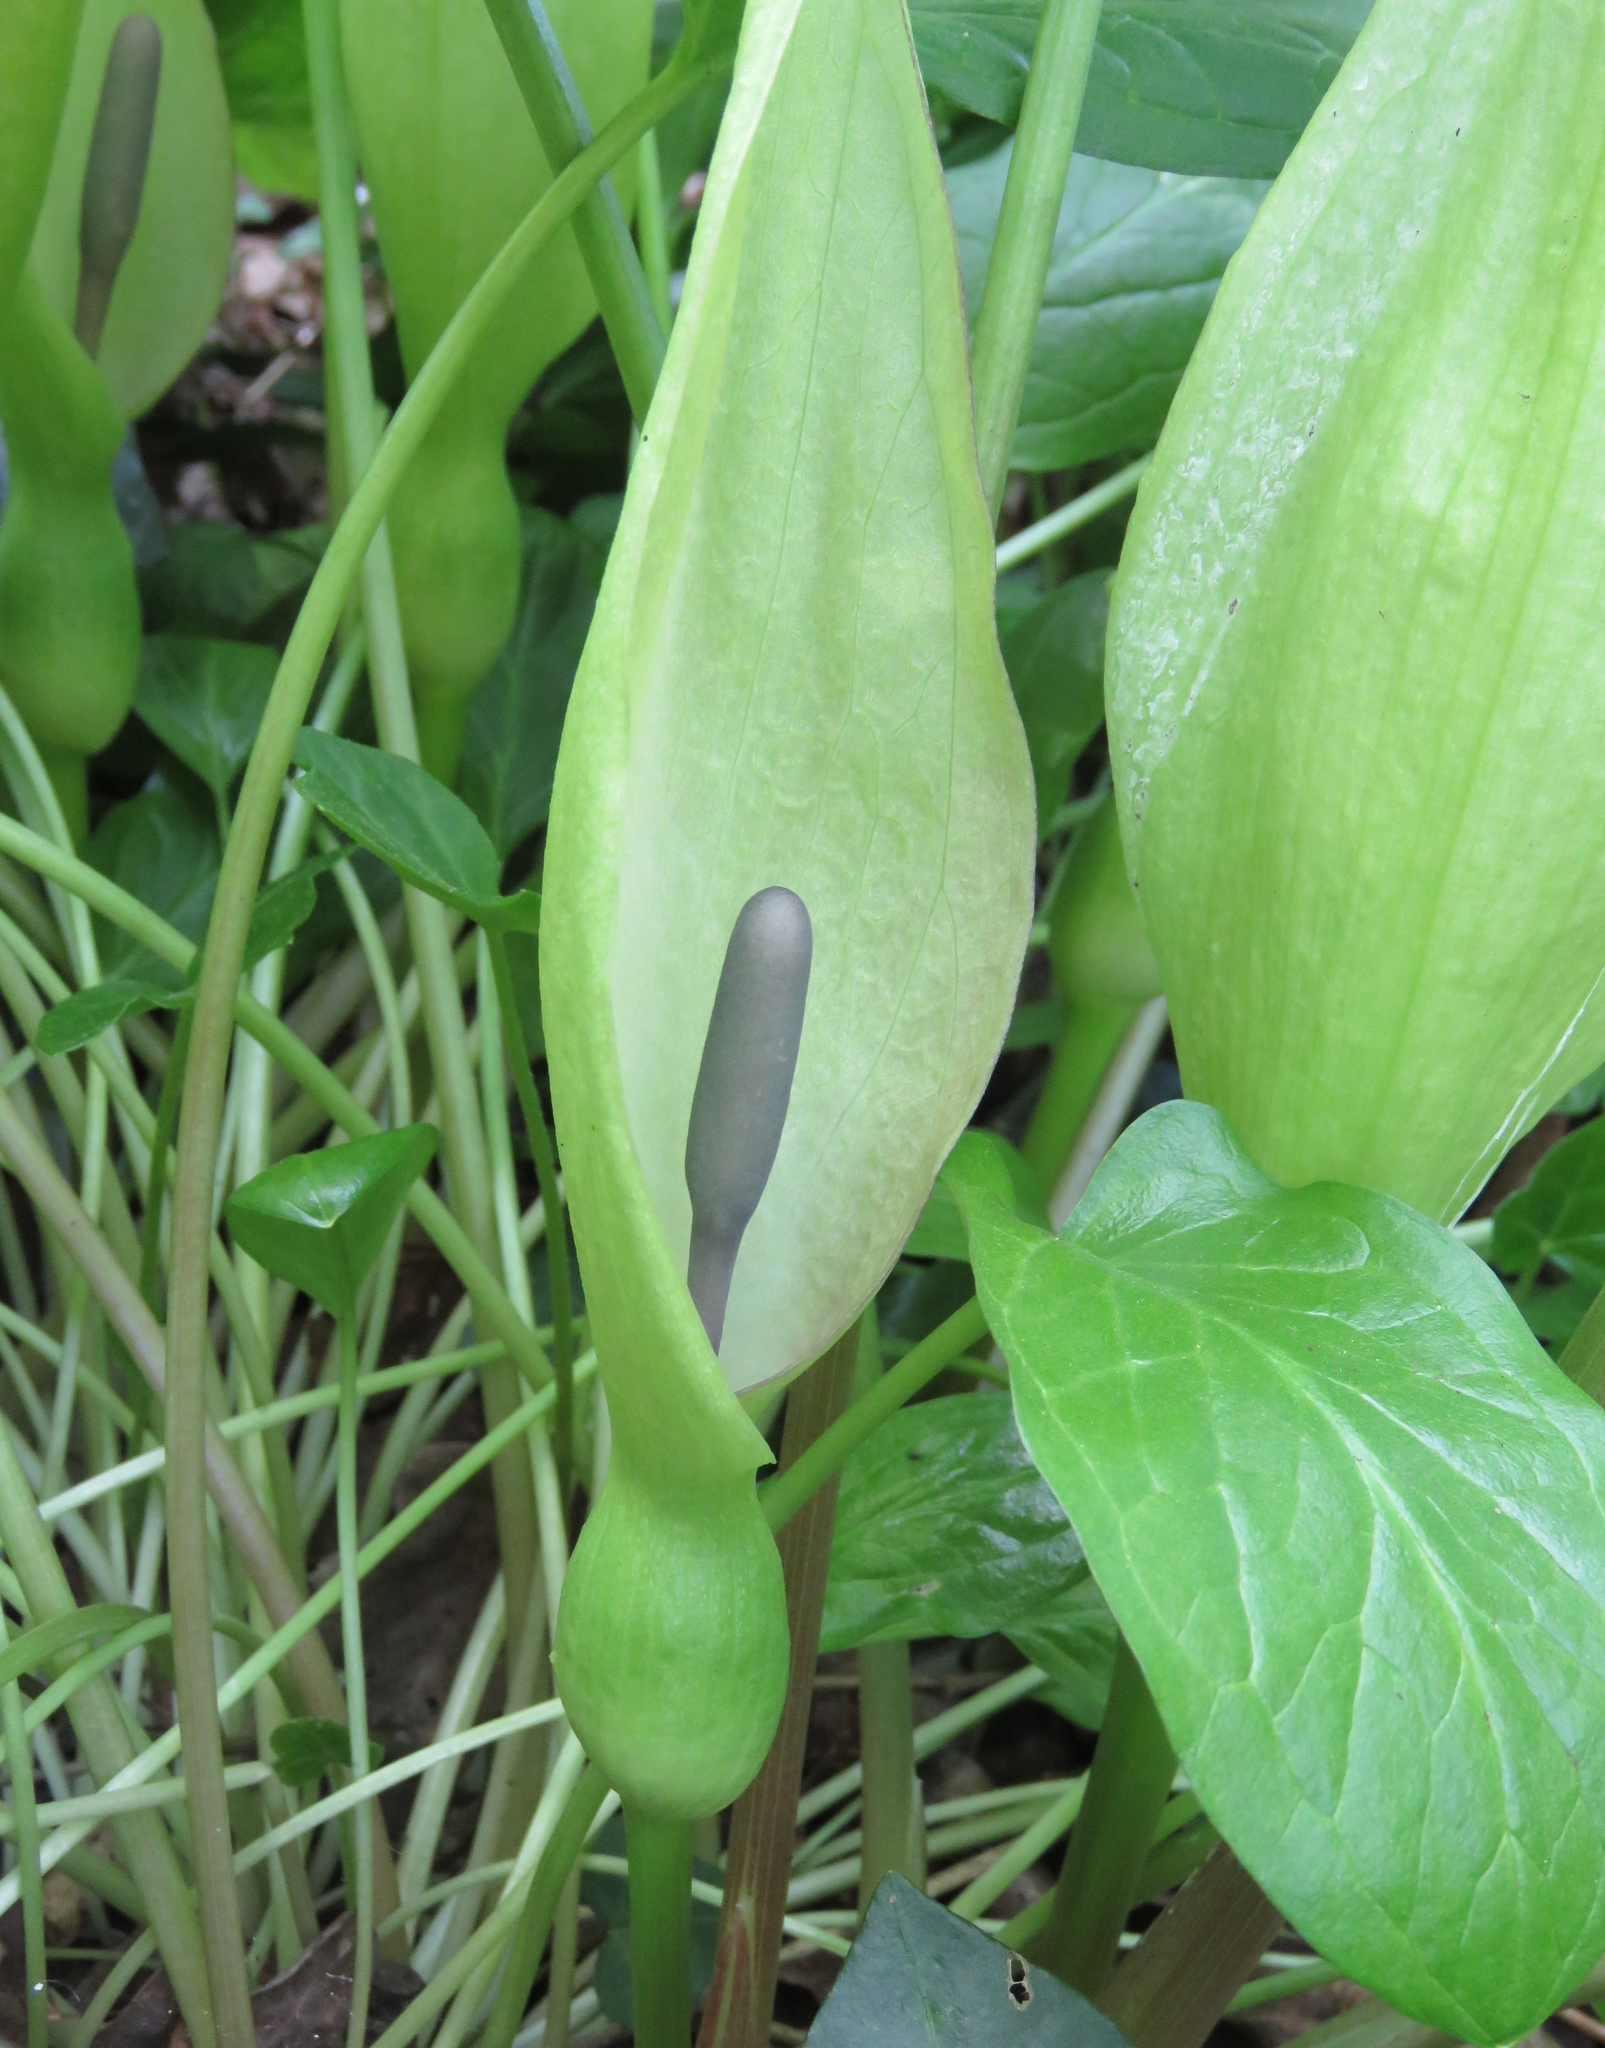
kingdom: Plantae
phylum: Tracheophyta
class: Liliopsida
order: Alismatales
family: Araceae
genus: Arum
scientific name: Arum maculatum
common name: Lords-and-ladies
